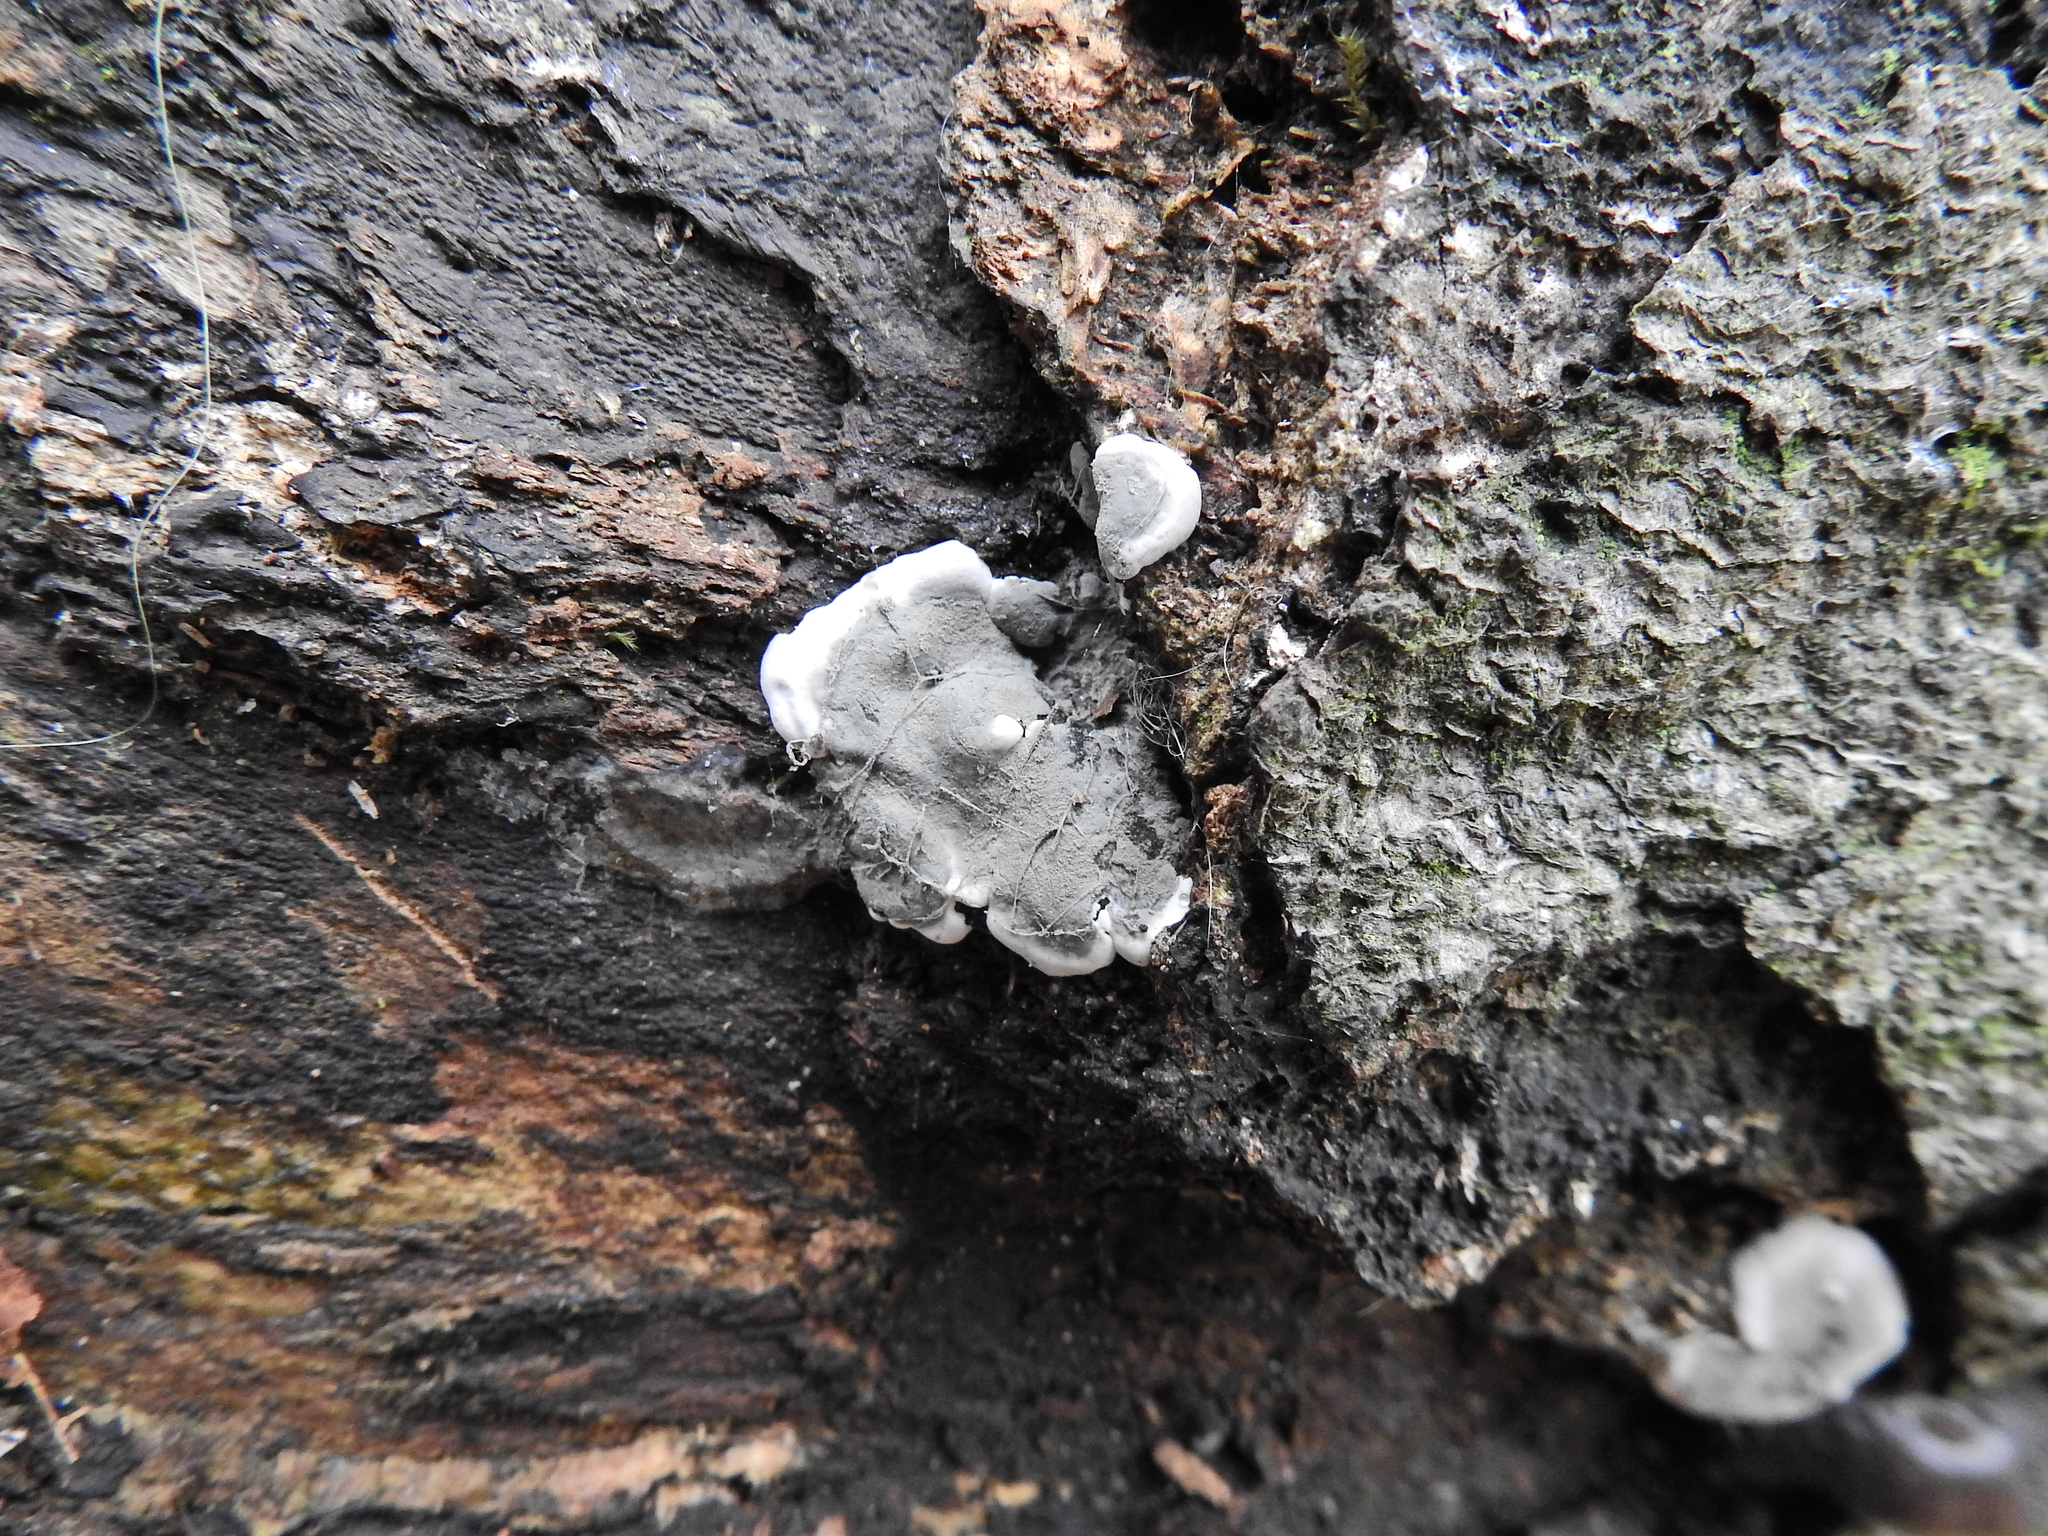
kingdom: Fungi
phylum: Ascomycota
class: Sordariomycetes
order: Xylariales
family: Xylariaceae
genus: Kretzschmaria
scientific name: Kretzschmaria deusta
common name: Brittle cinder
